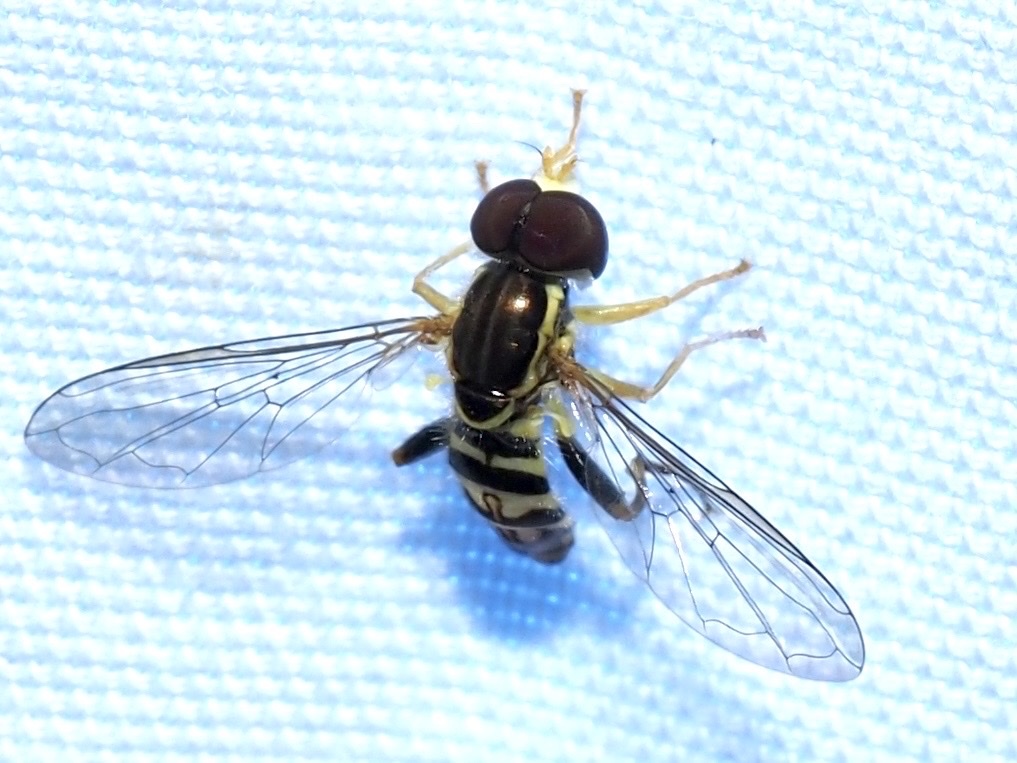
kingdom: Animalia
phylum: Arthropoda
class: Insecta
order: Diptera
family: Syrphidae
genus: Toxomerus
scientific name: Toxomerus geminatus
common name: Eastern calligrapher
